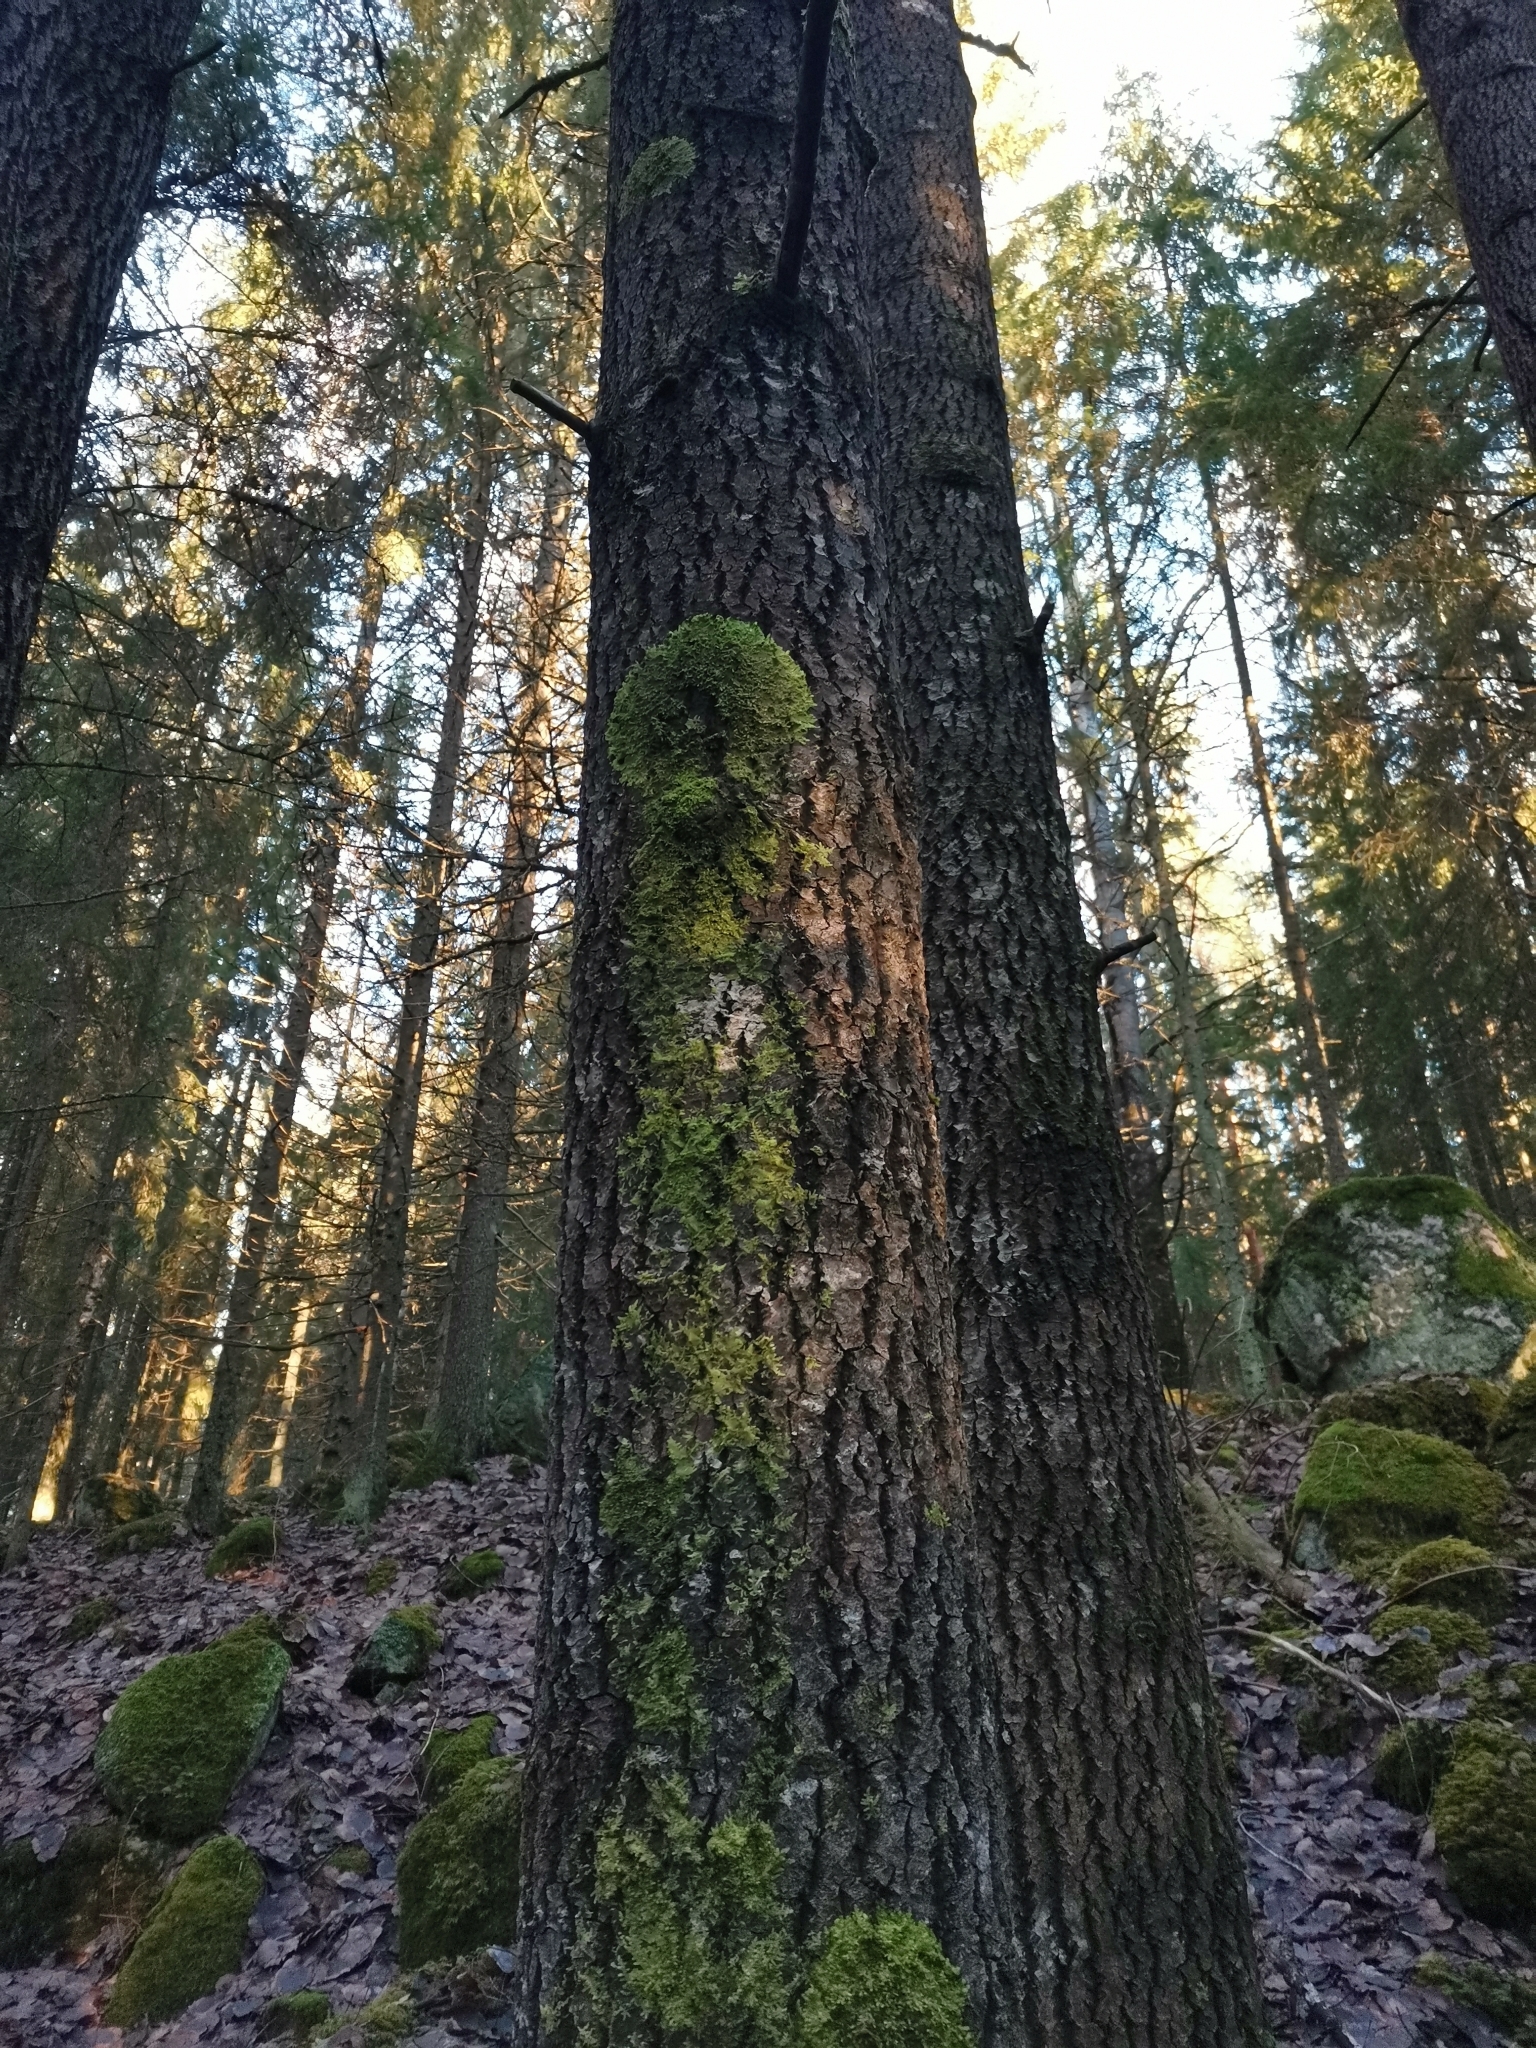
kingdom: Plantae
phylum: Marchantiophyta
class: Jungermanniopsida
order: Porellales
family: Radulaceae
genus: Radula
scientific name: Radula complanata
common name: Flat-leaved scalewort
